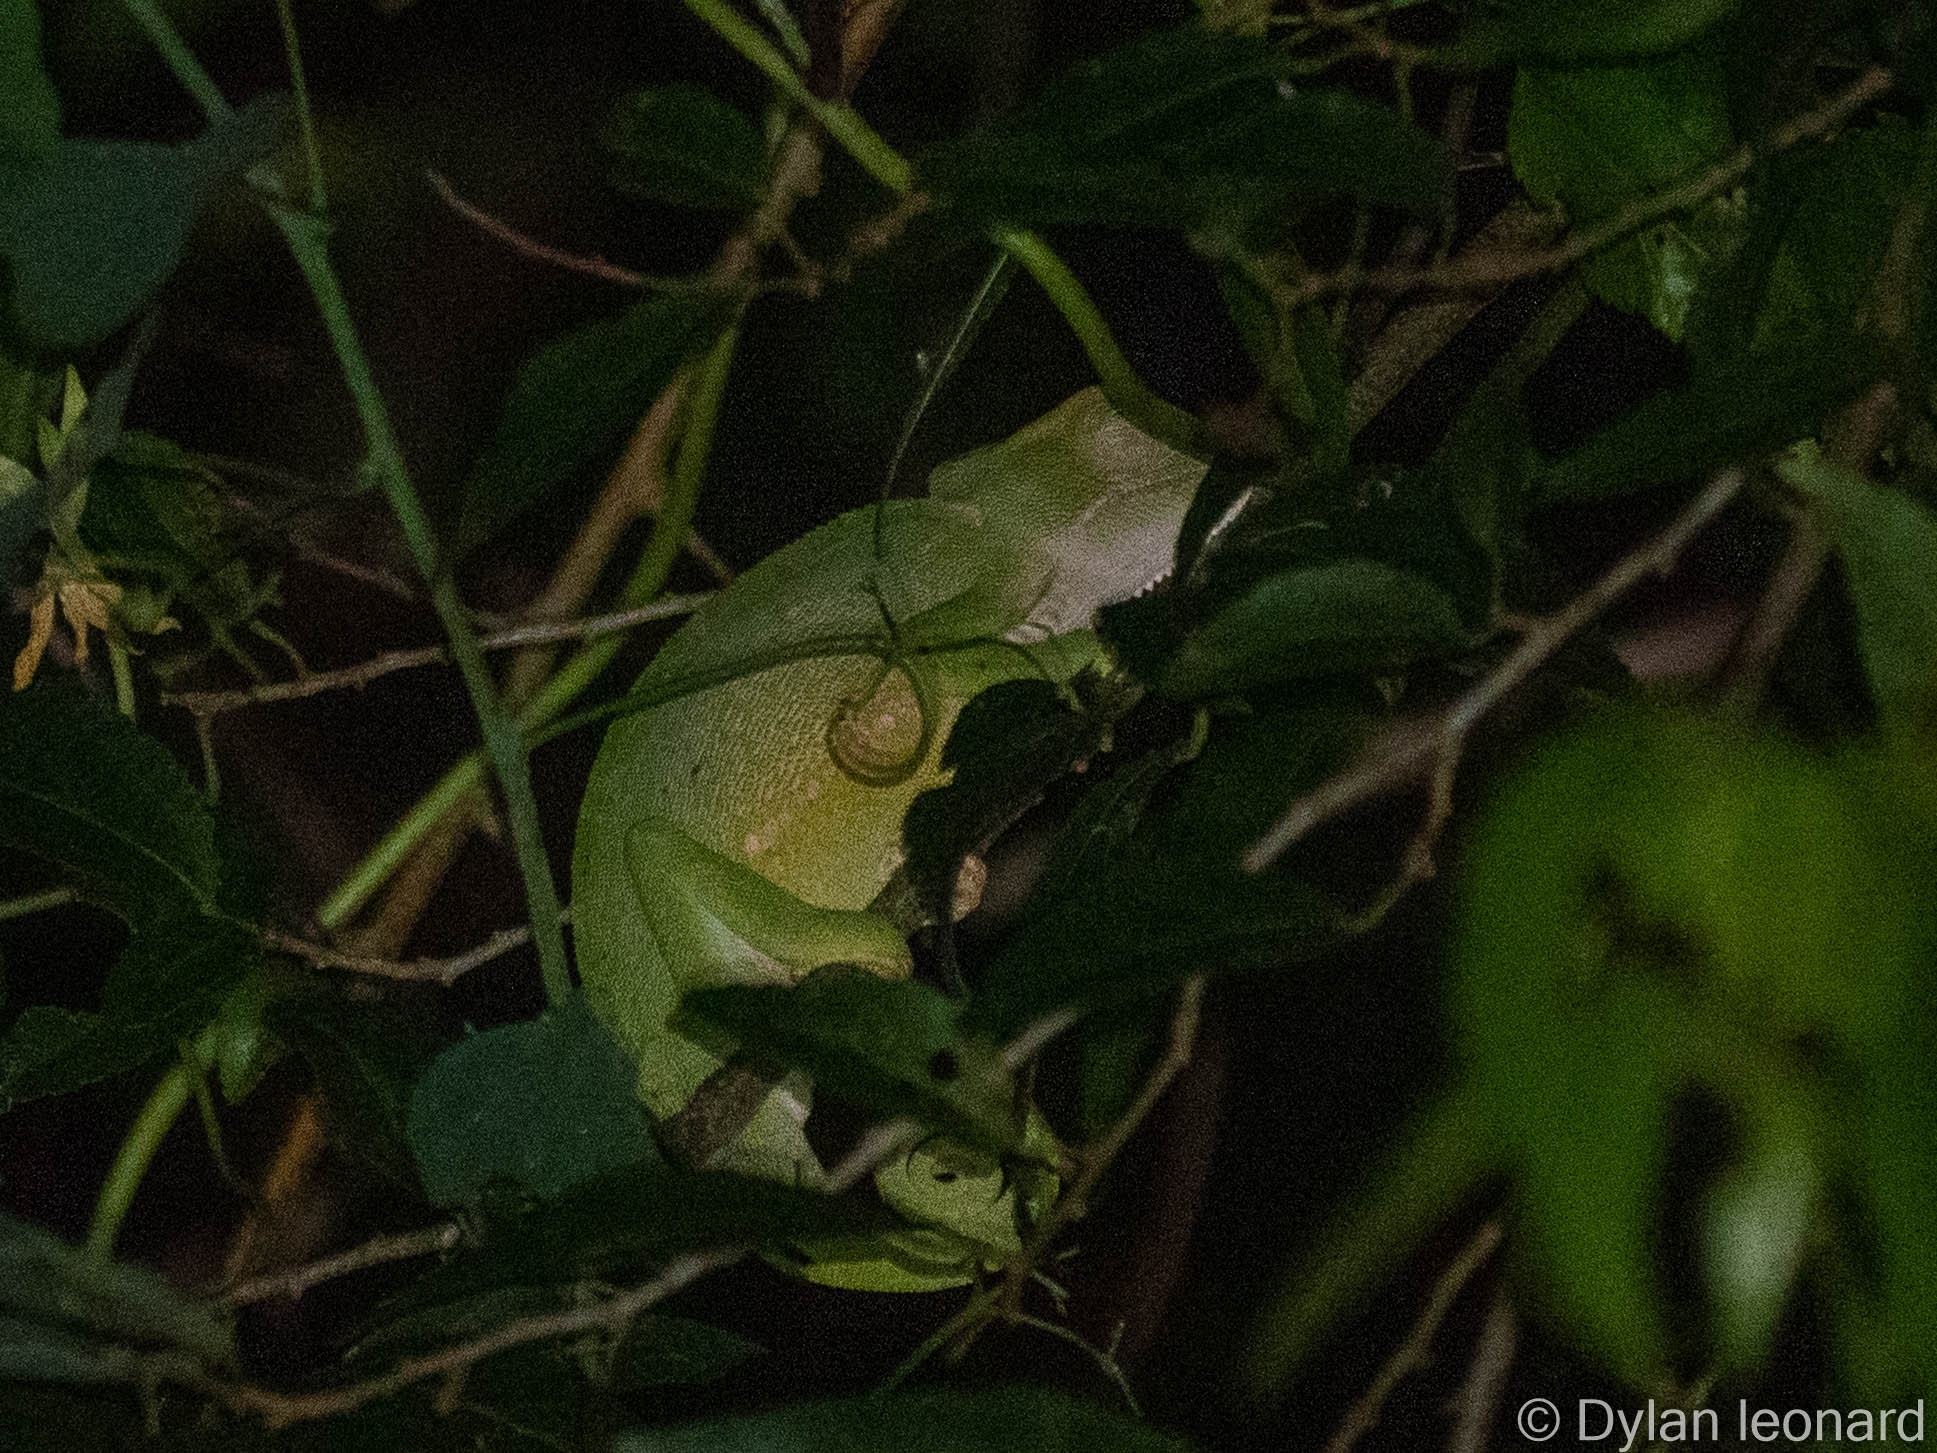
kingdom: Animalia
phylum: Chordata
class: Squamata
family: Chamaeleonidae
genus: Chamaeleo
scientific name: Chamaeleo dilepis
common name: Flapneck chameleon
